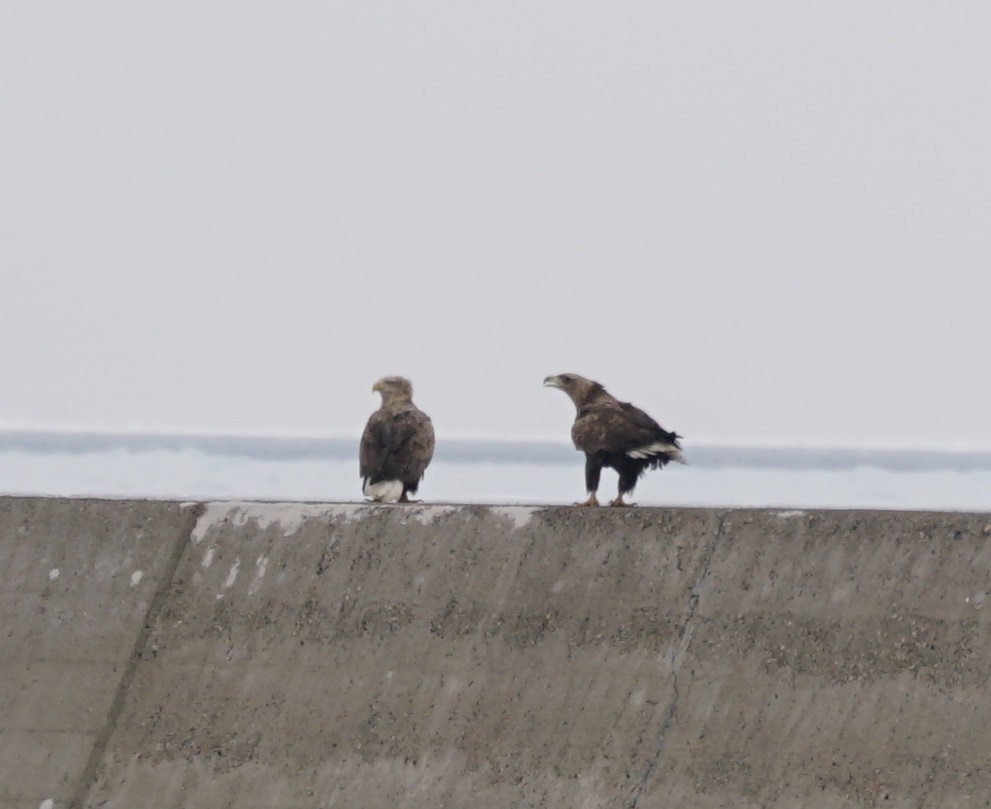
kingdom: Animalia
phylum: Chordata
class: Aves
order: Accipitriformes
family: Accipitridae
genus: Haliaeetus
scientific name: Haliaeetus albicilla
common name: White-tailed eagle
